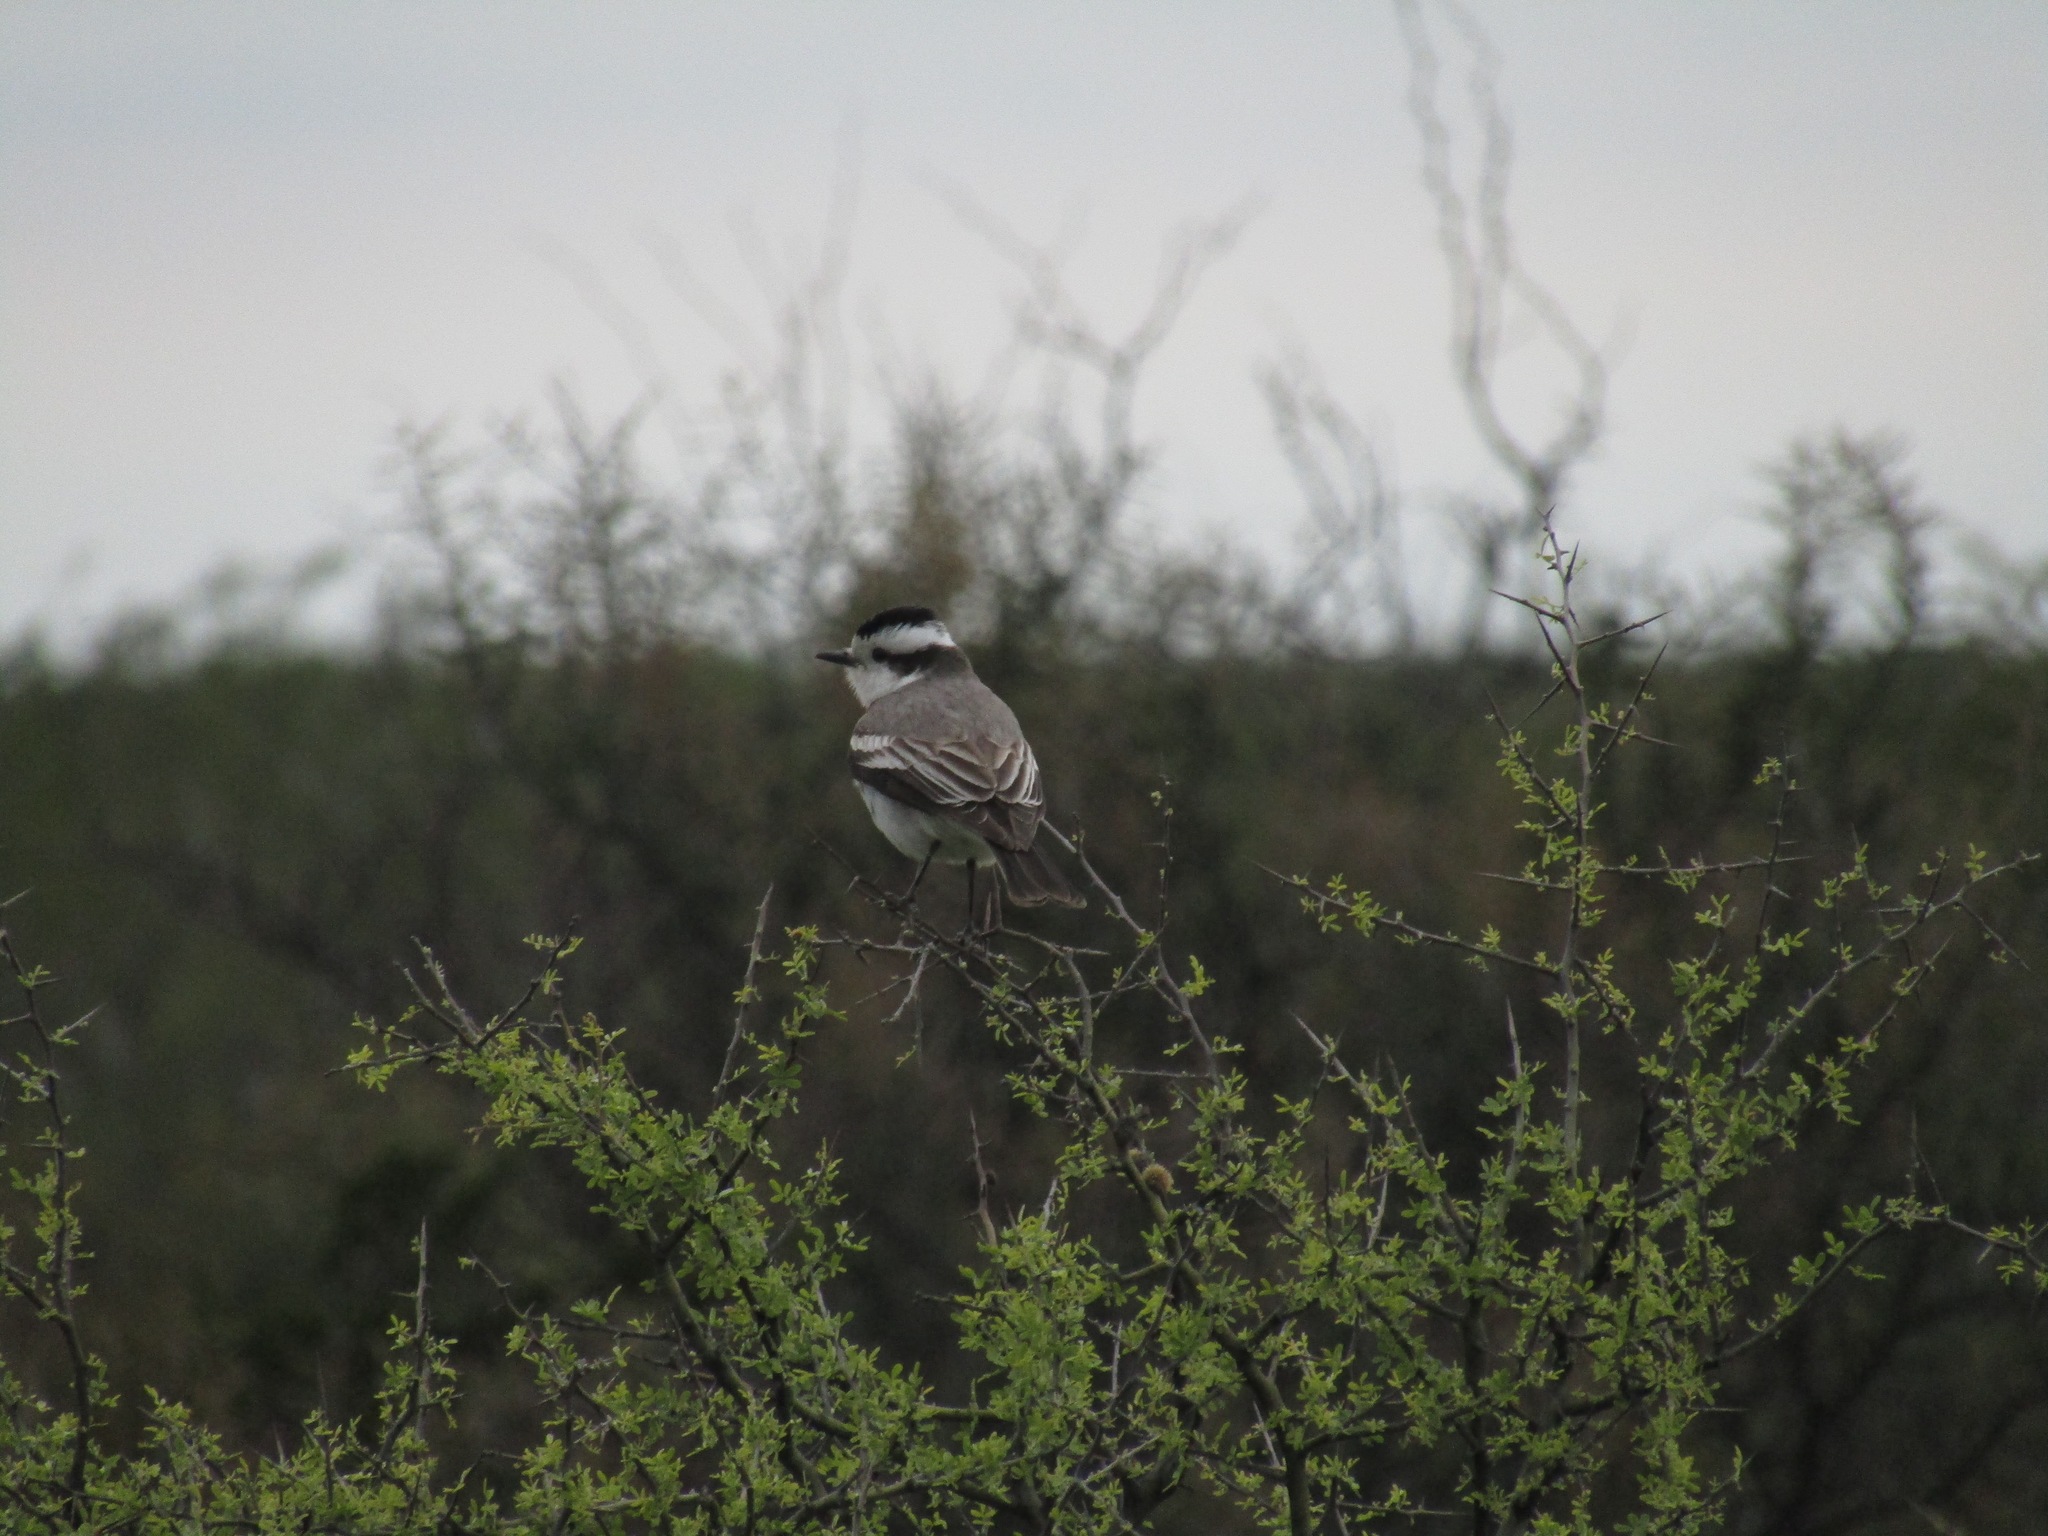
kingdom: Animalia
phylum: Chordata
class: Aves
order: Passeriformes
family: Tyrannidae
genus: Xolmis
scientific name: Xolmis coronatus
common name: Black-crowned monjita
